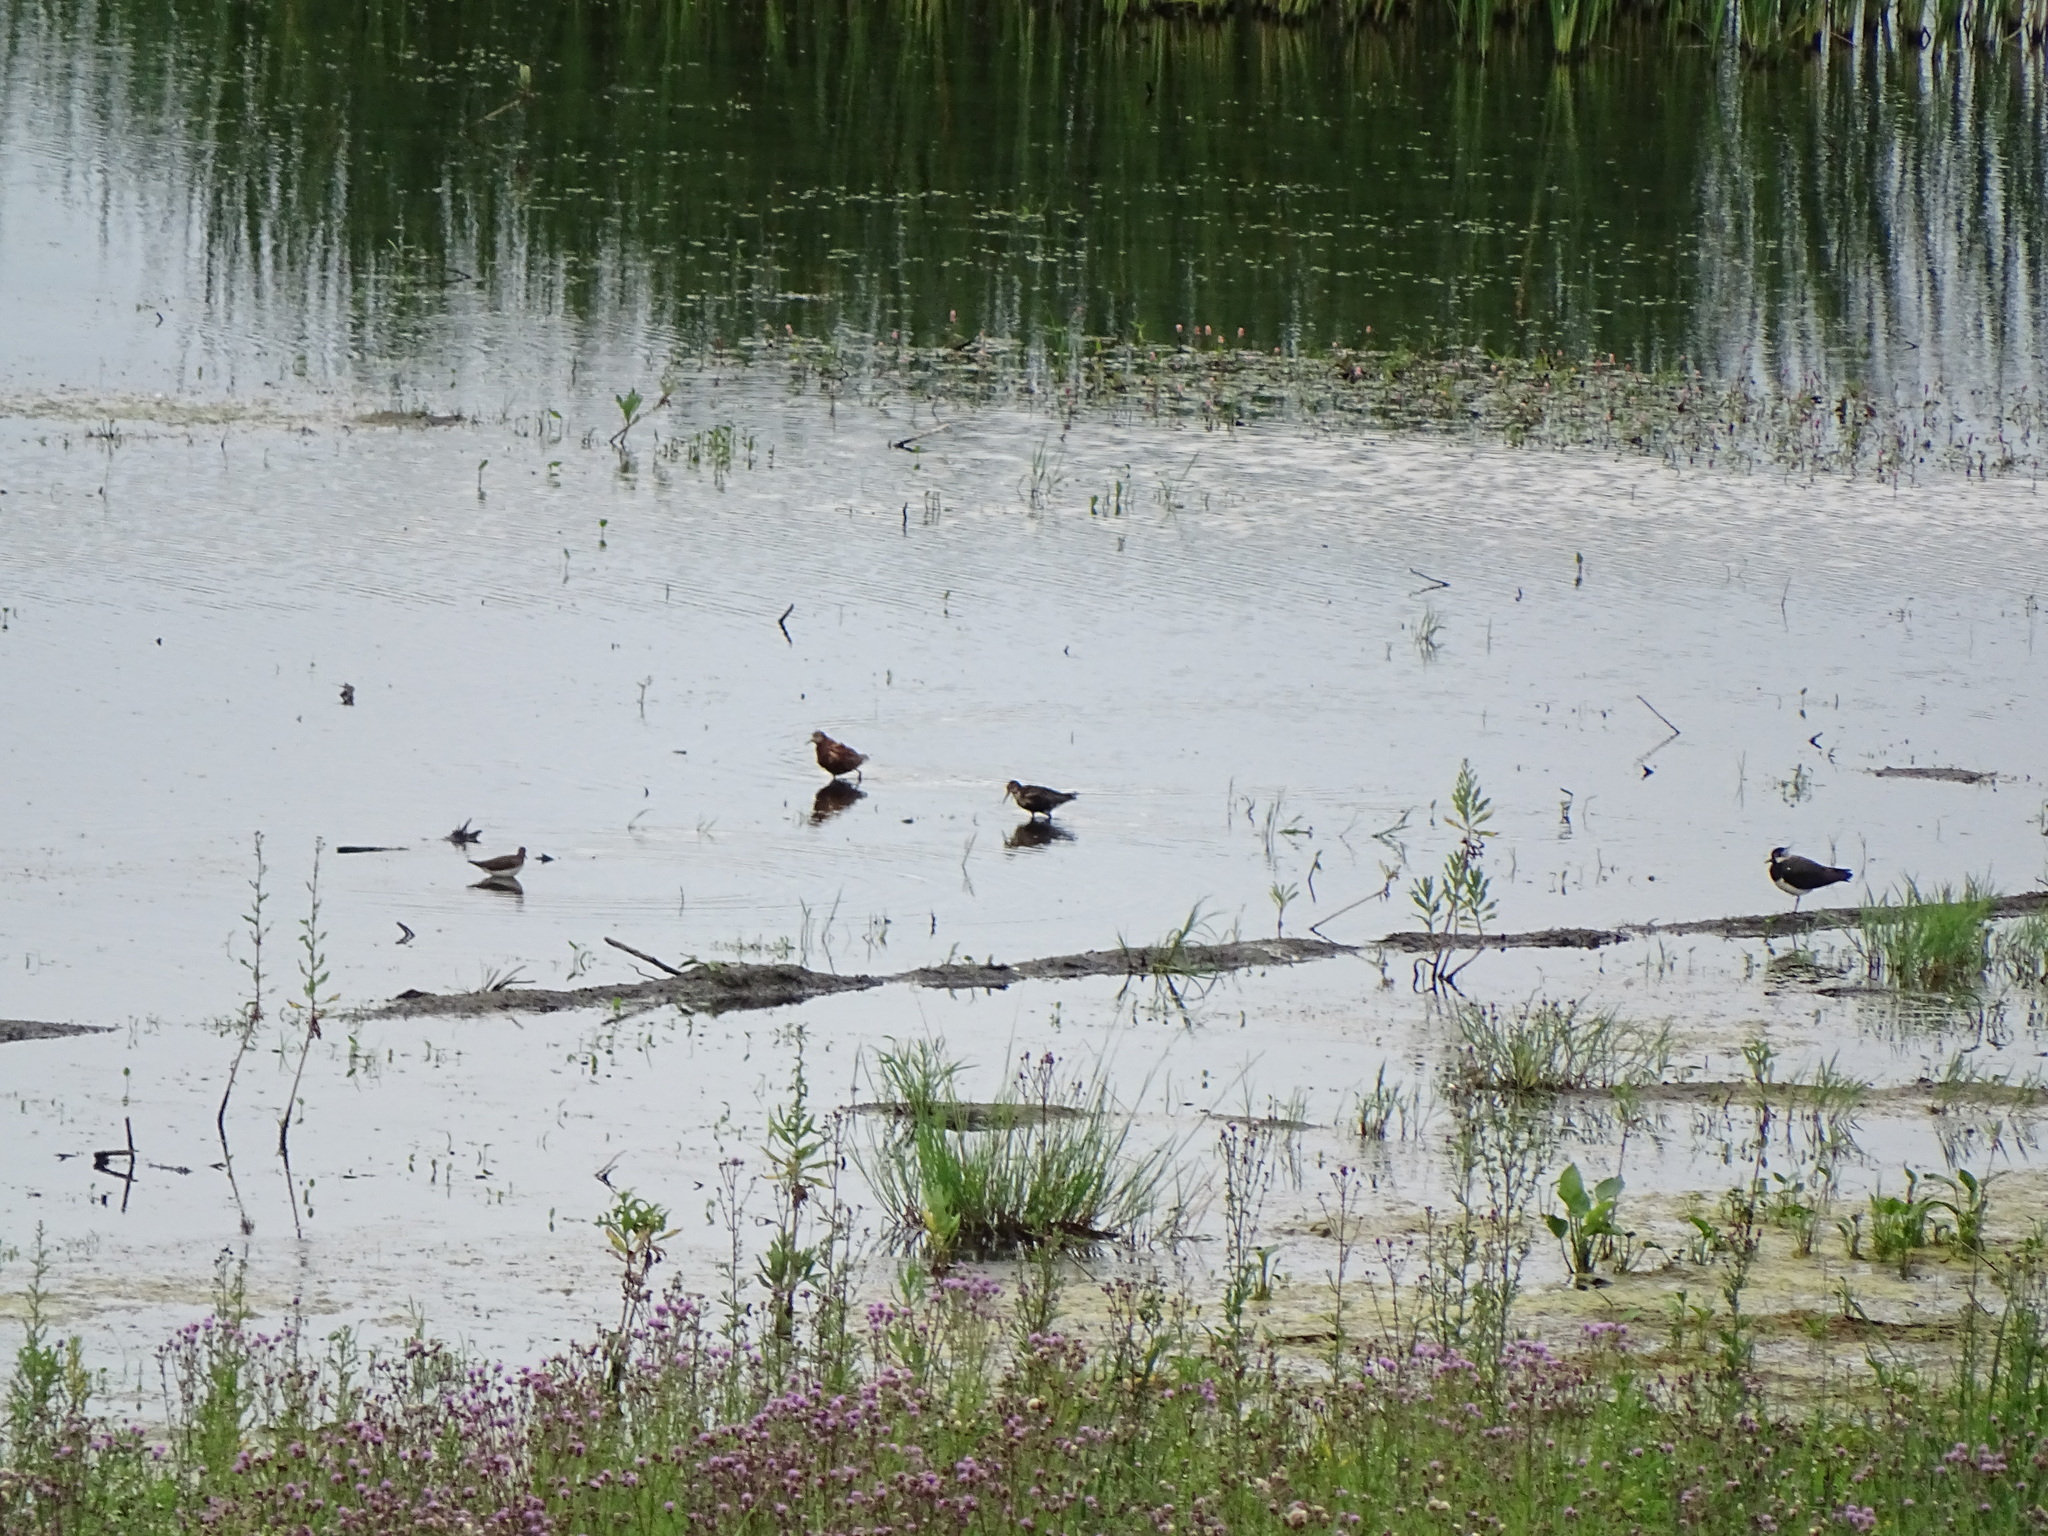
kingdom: Animalia
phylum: Chordata
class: Aves
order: Charadriiformes
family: Scolopacidae
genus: Calidris
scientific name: Calidris pugnax
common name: Ruff
